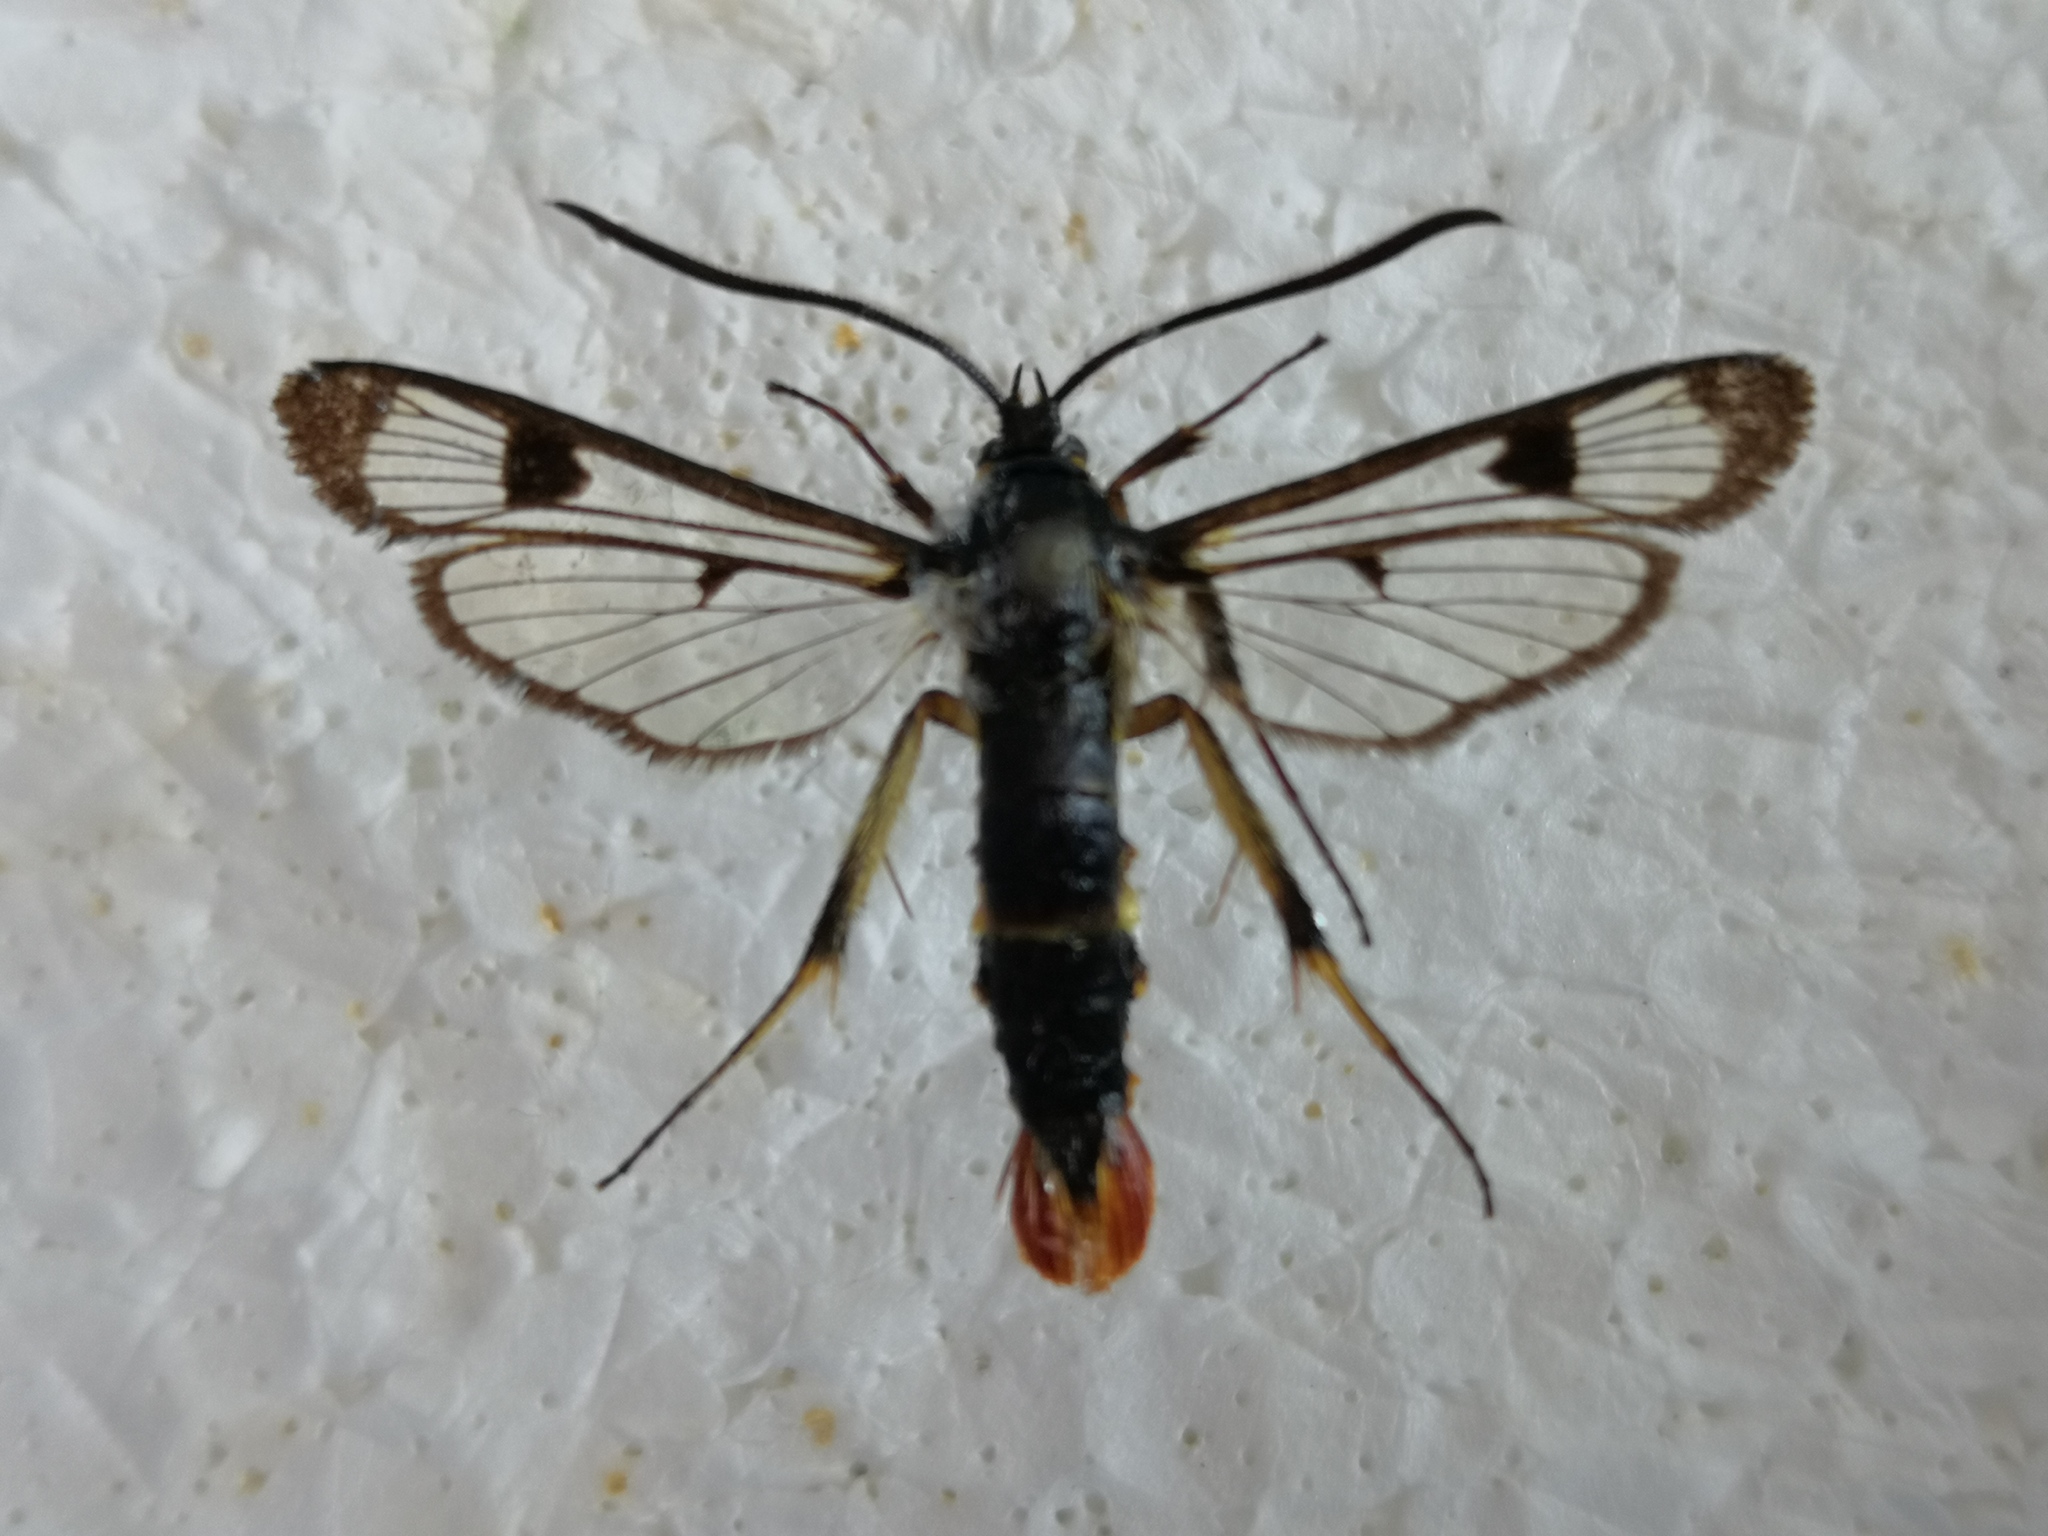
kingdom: Animalia
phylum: Arthropoda
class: Insecta
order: Lepidoptera
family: Sesiidae
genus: Synanthedon
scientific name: Synanthedon scoliaeformis
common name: Welsh clearwing
